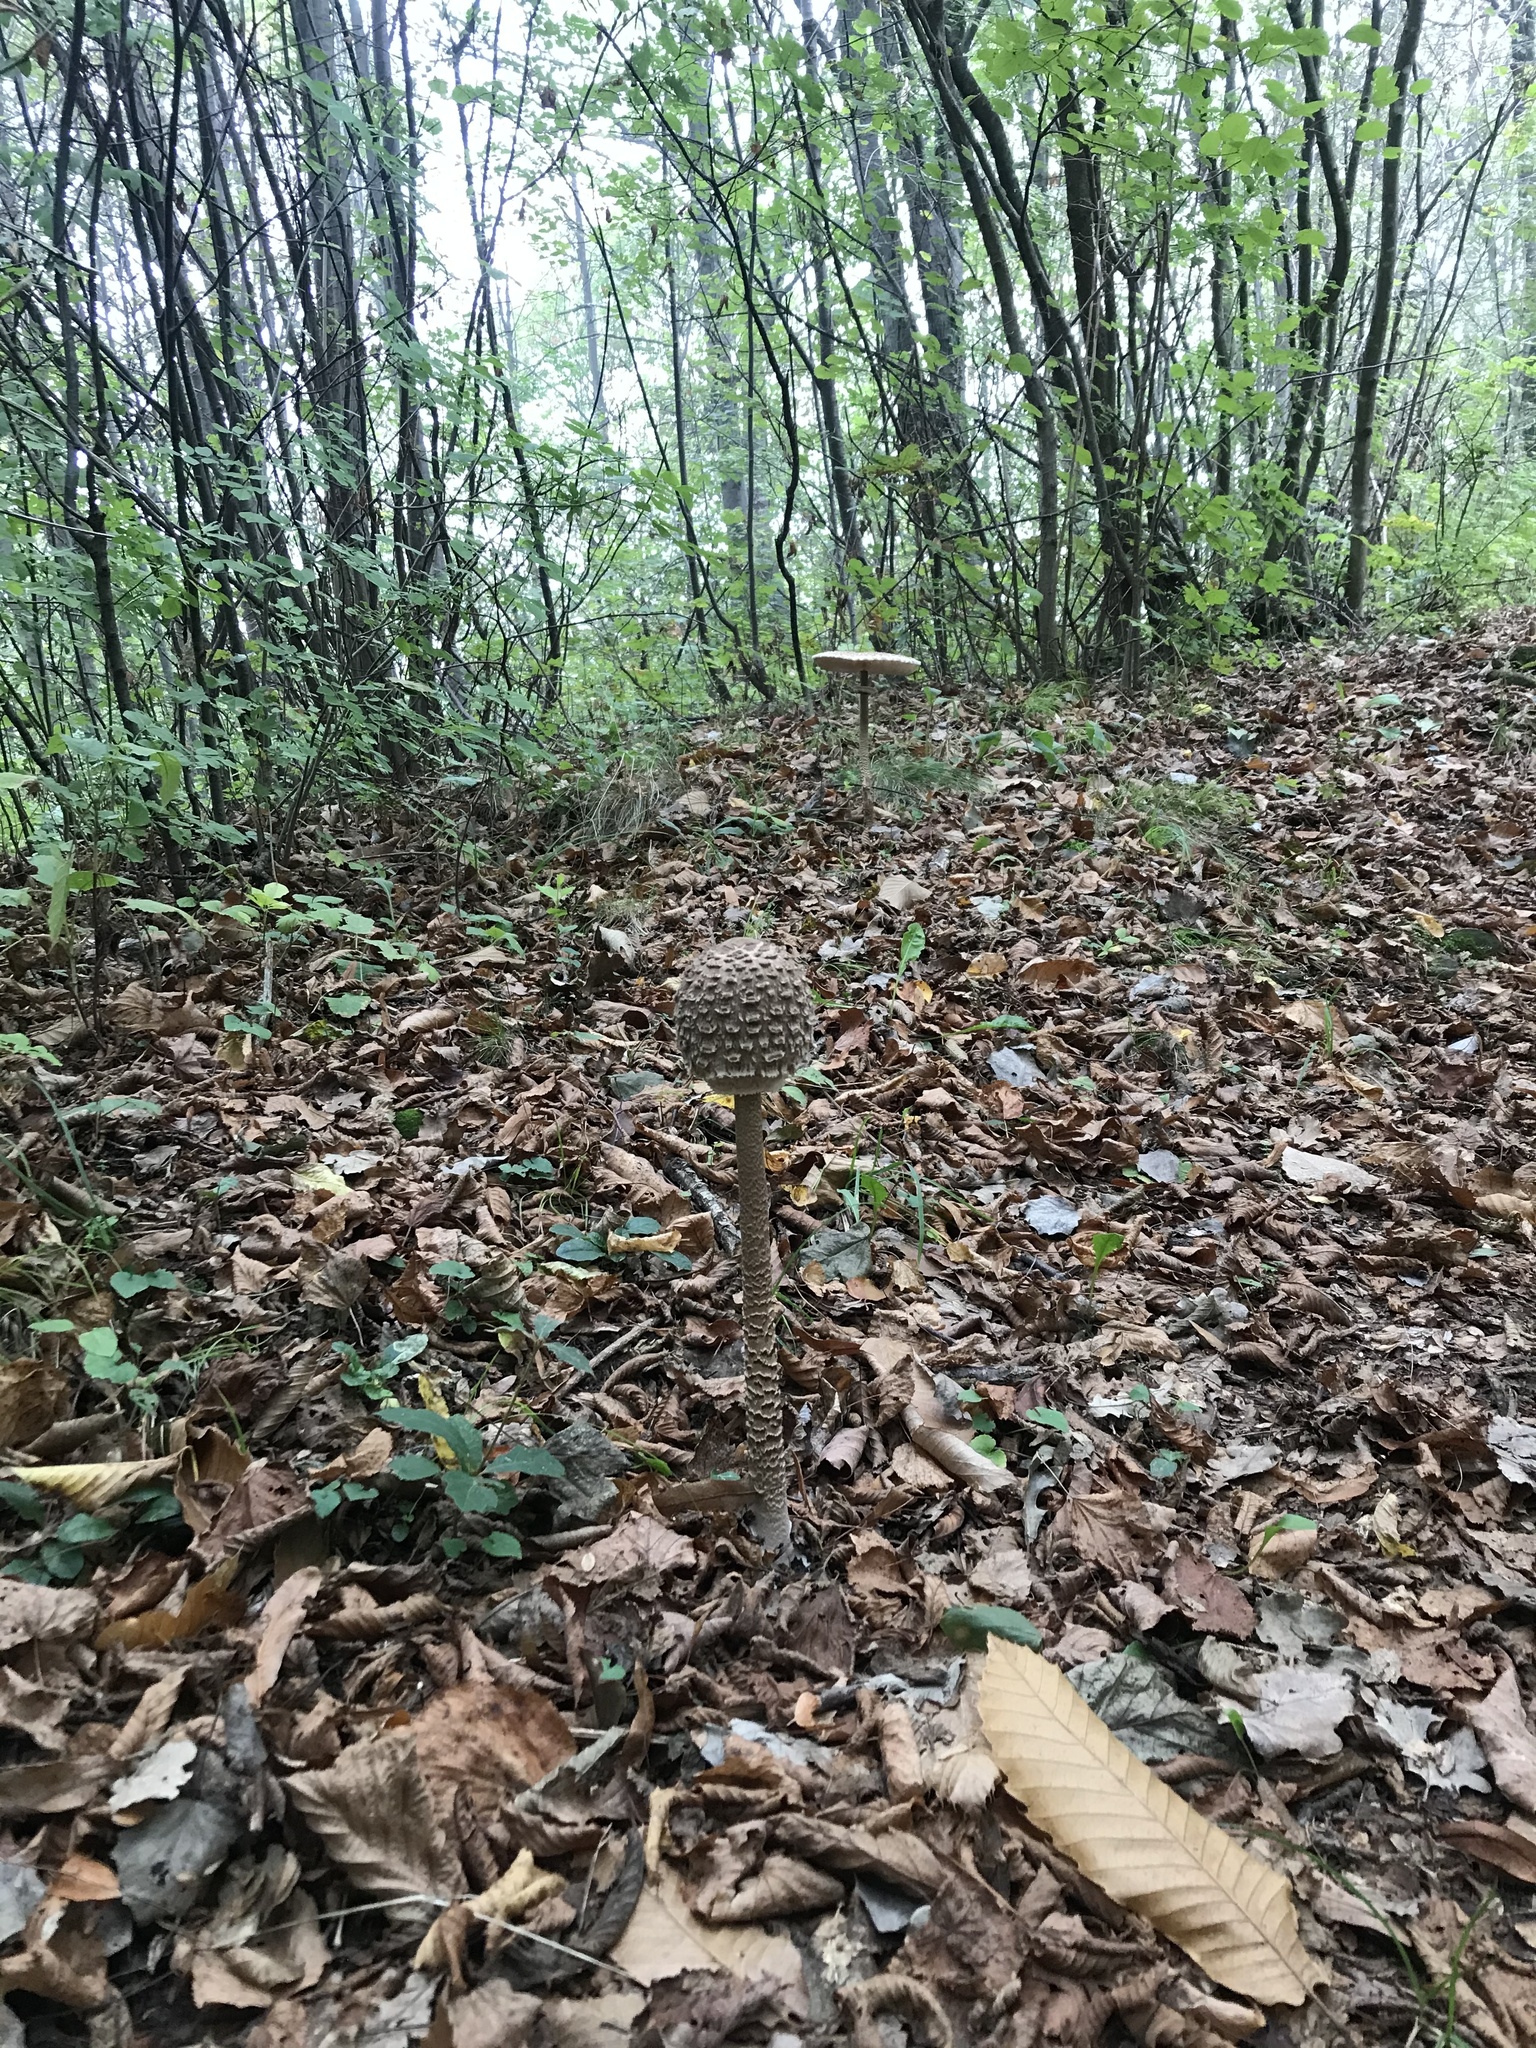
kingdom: Fungi
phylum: Basidiomycota
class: Agaricomycetes
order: Agaricales
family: Agaricaceae
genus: Macrolepiota
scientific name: Macrolepiota procera
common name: Parasol
